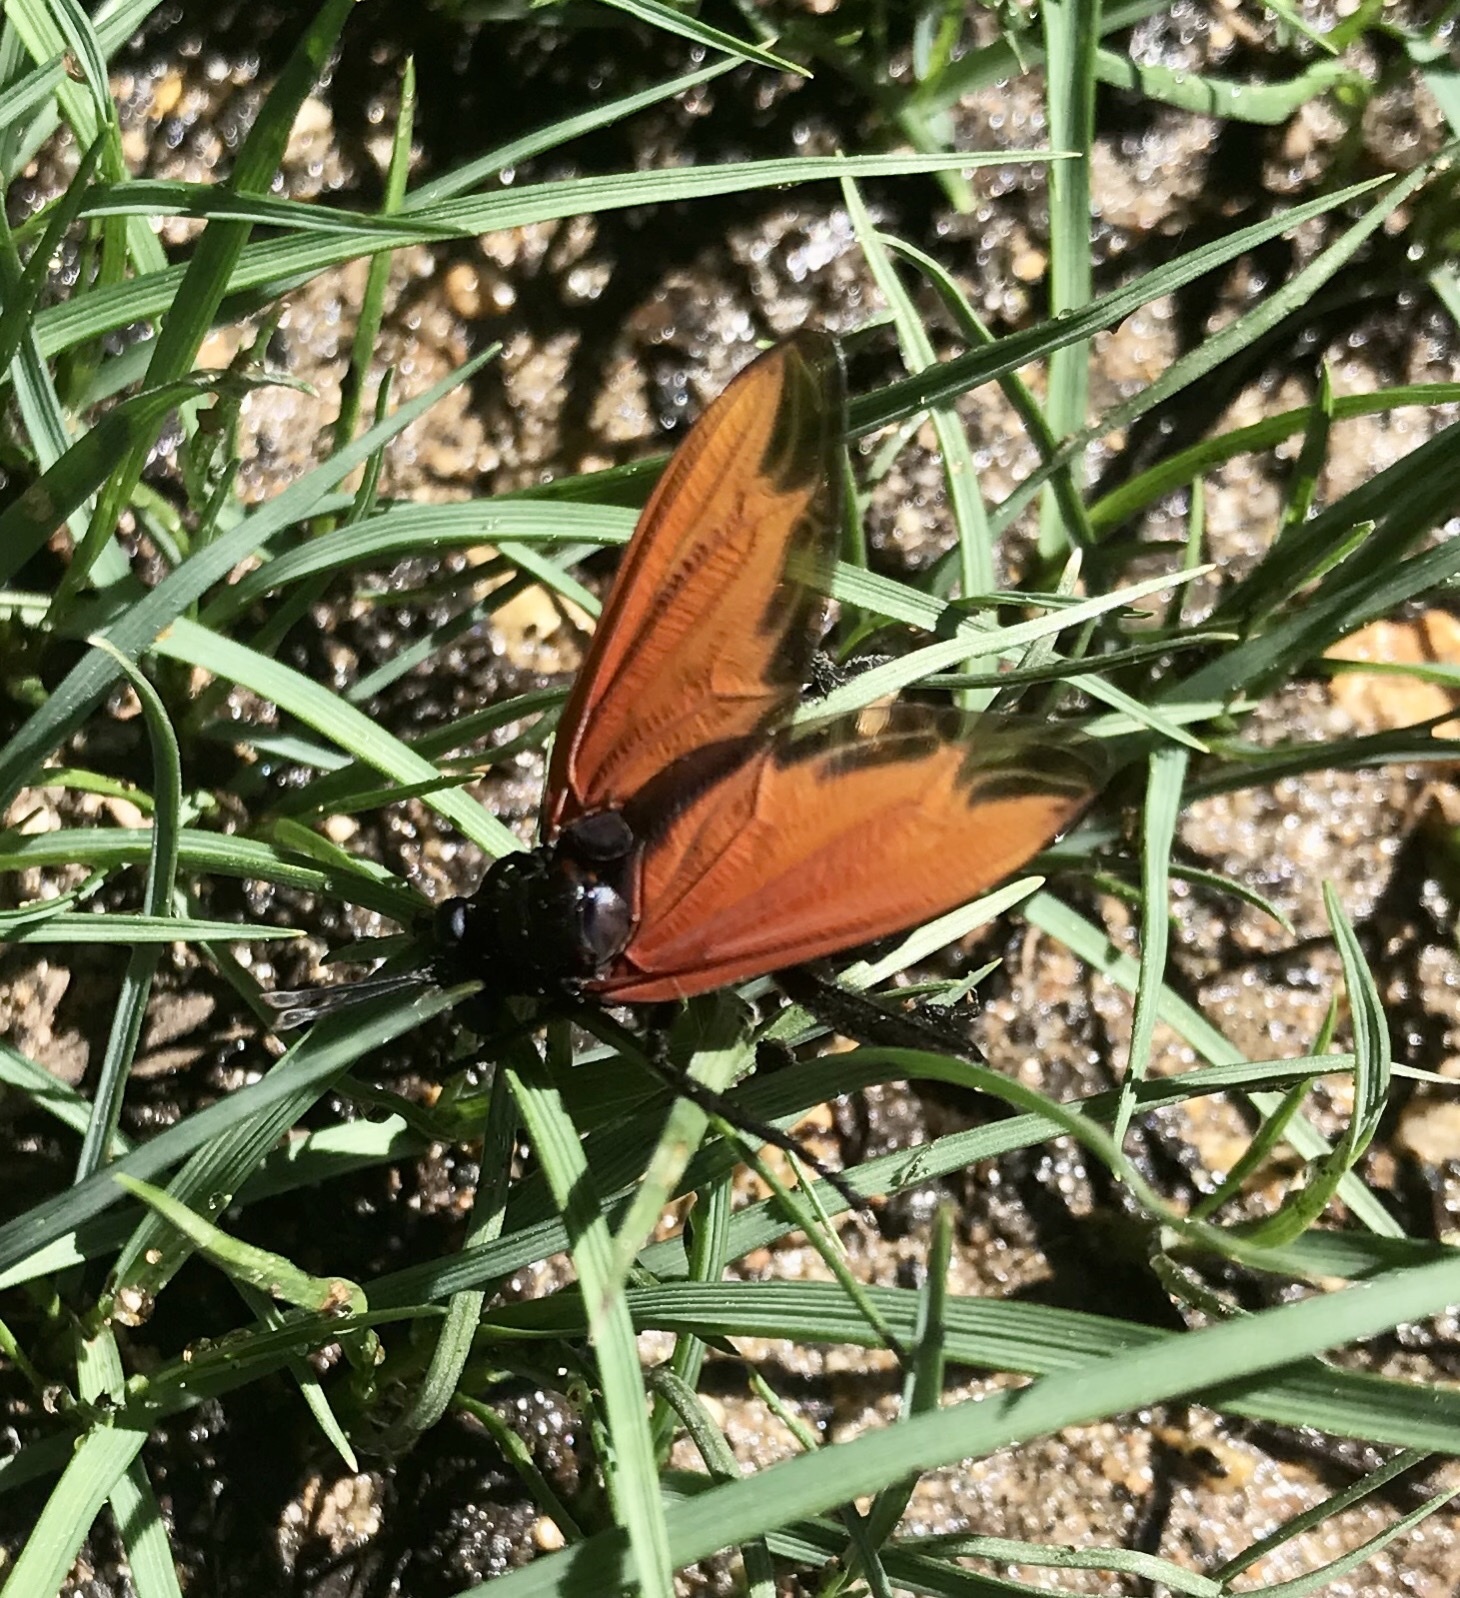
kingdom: Animalia
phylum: Arthropoda
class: Insecta
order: Diptera
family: Mydidae
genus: Mydas
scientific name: Mydas xanthopterus
